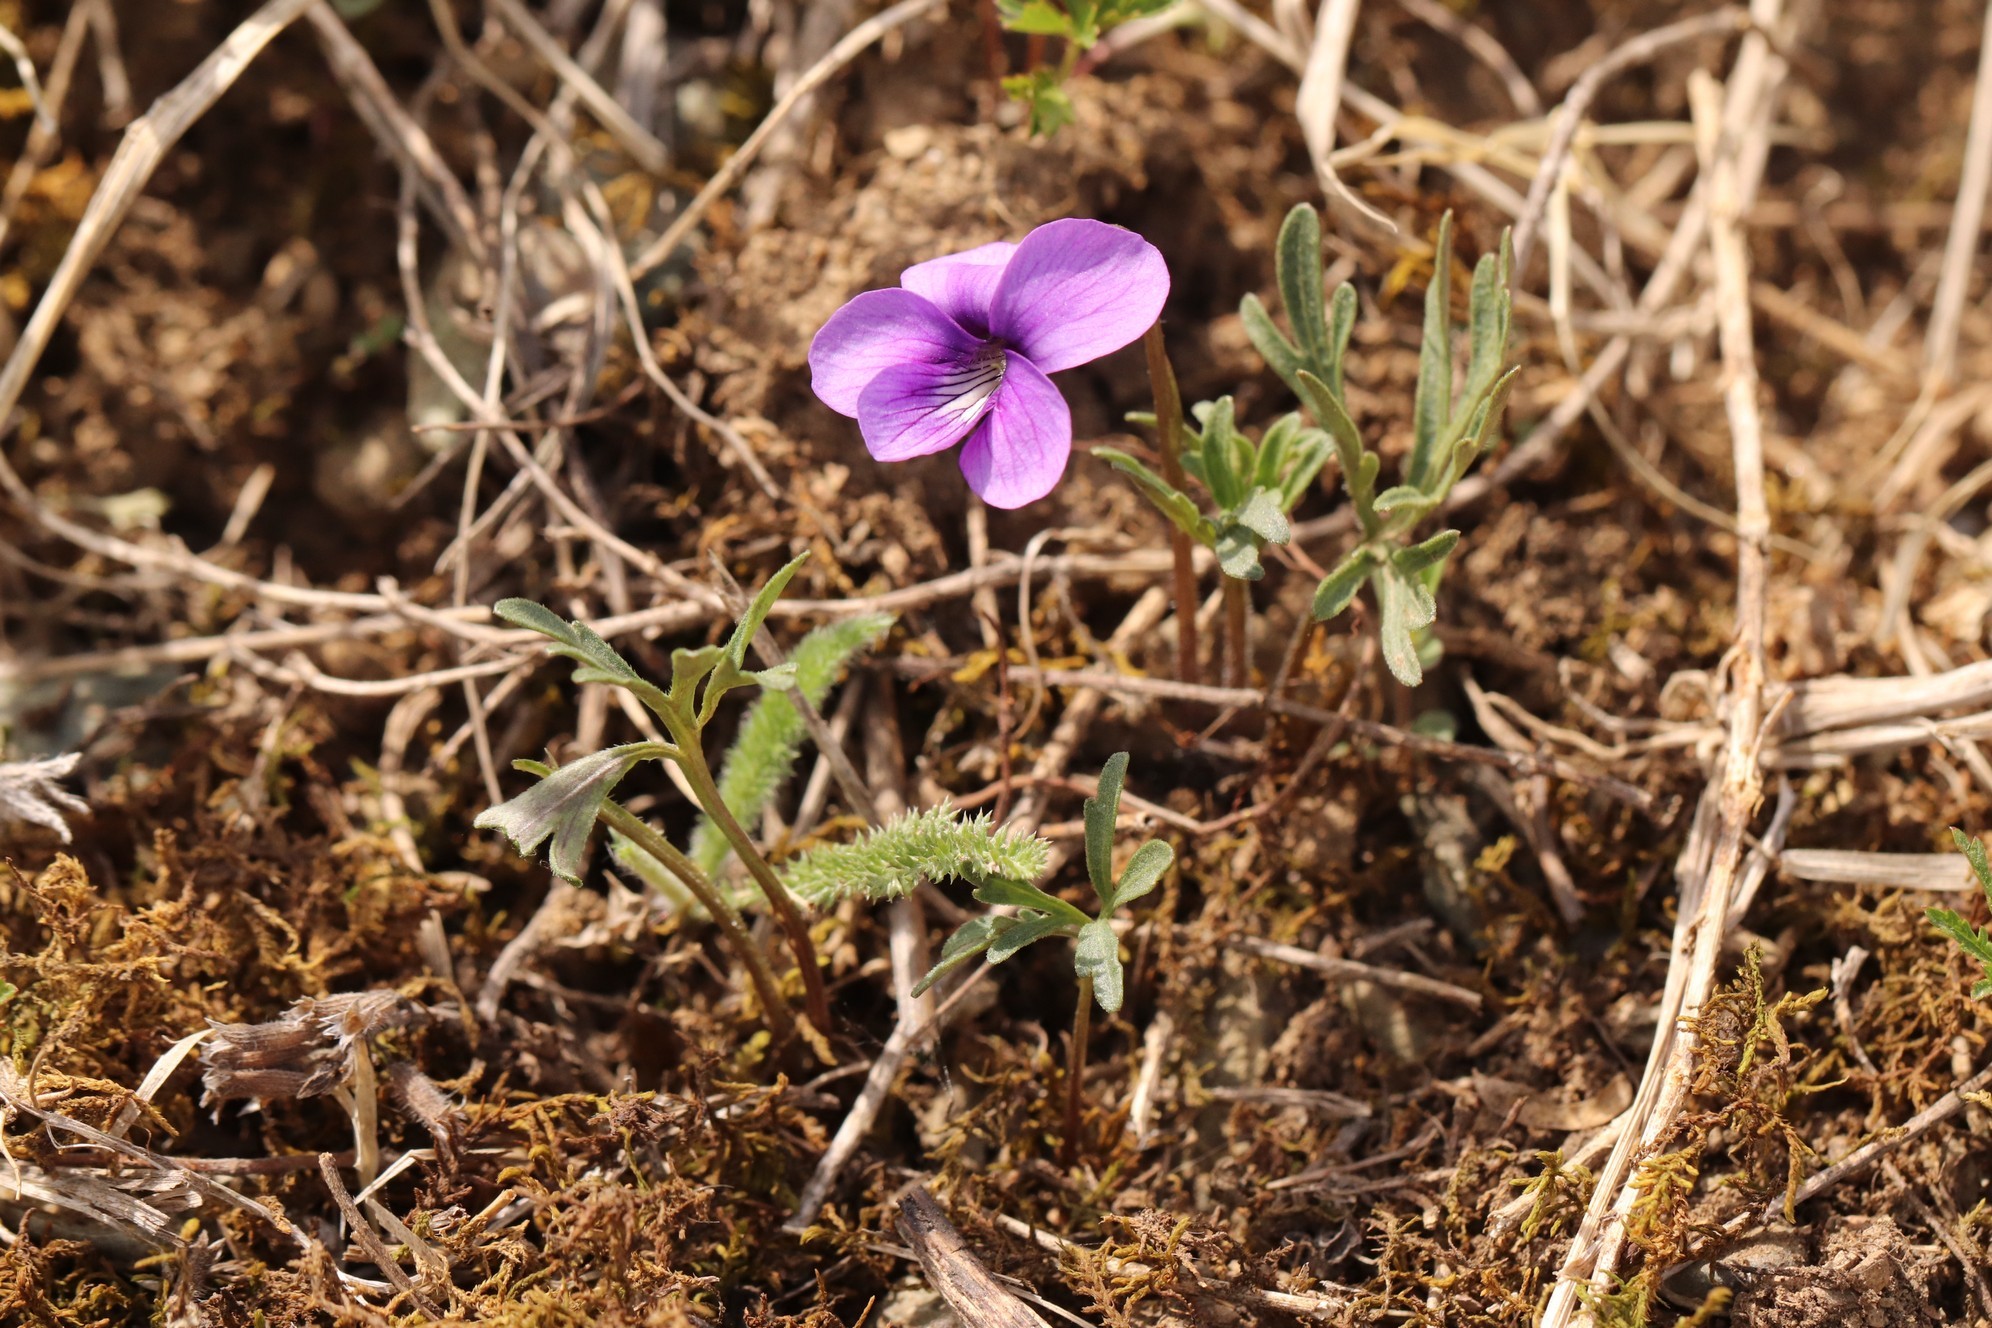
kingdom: Plantae
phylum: Tracheophyta
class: Magnoliopsida
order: Malpighiales
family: Violaceae
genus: Viola
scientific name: Viola multifida
